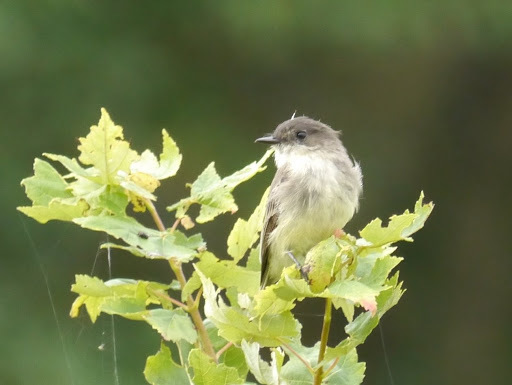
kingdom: Animalia
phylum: Chordata
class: Aves
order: Passeriformes
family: Tyrannidae
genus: Sayornis
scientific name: Sayornis phoebe
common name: Eastern phoebe
